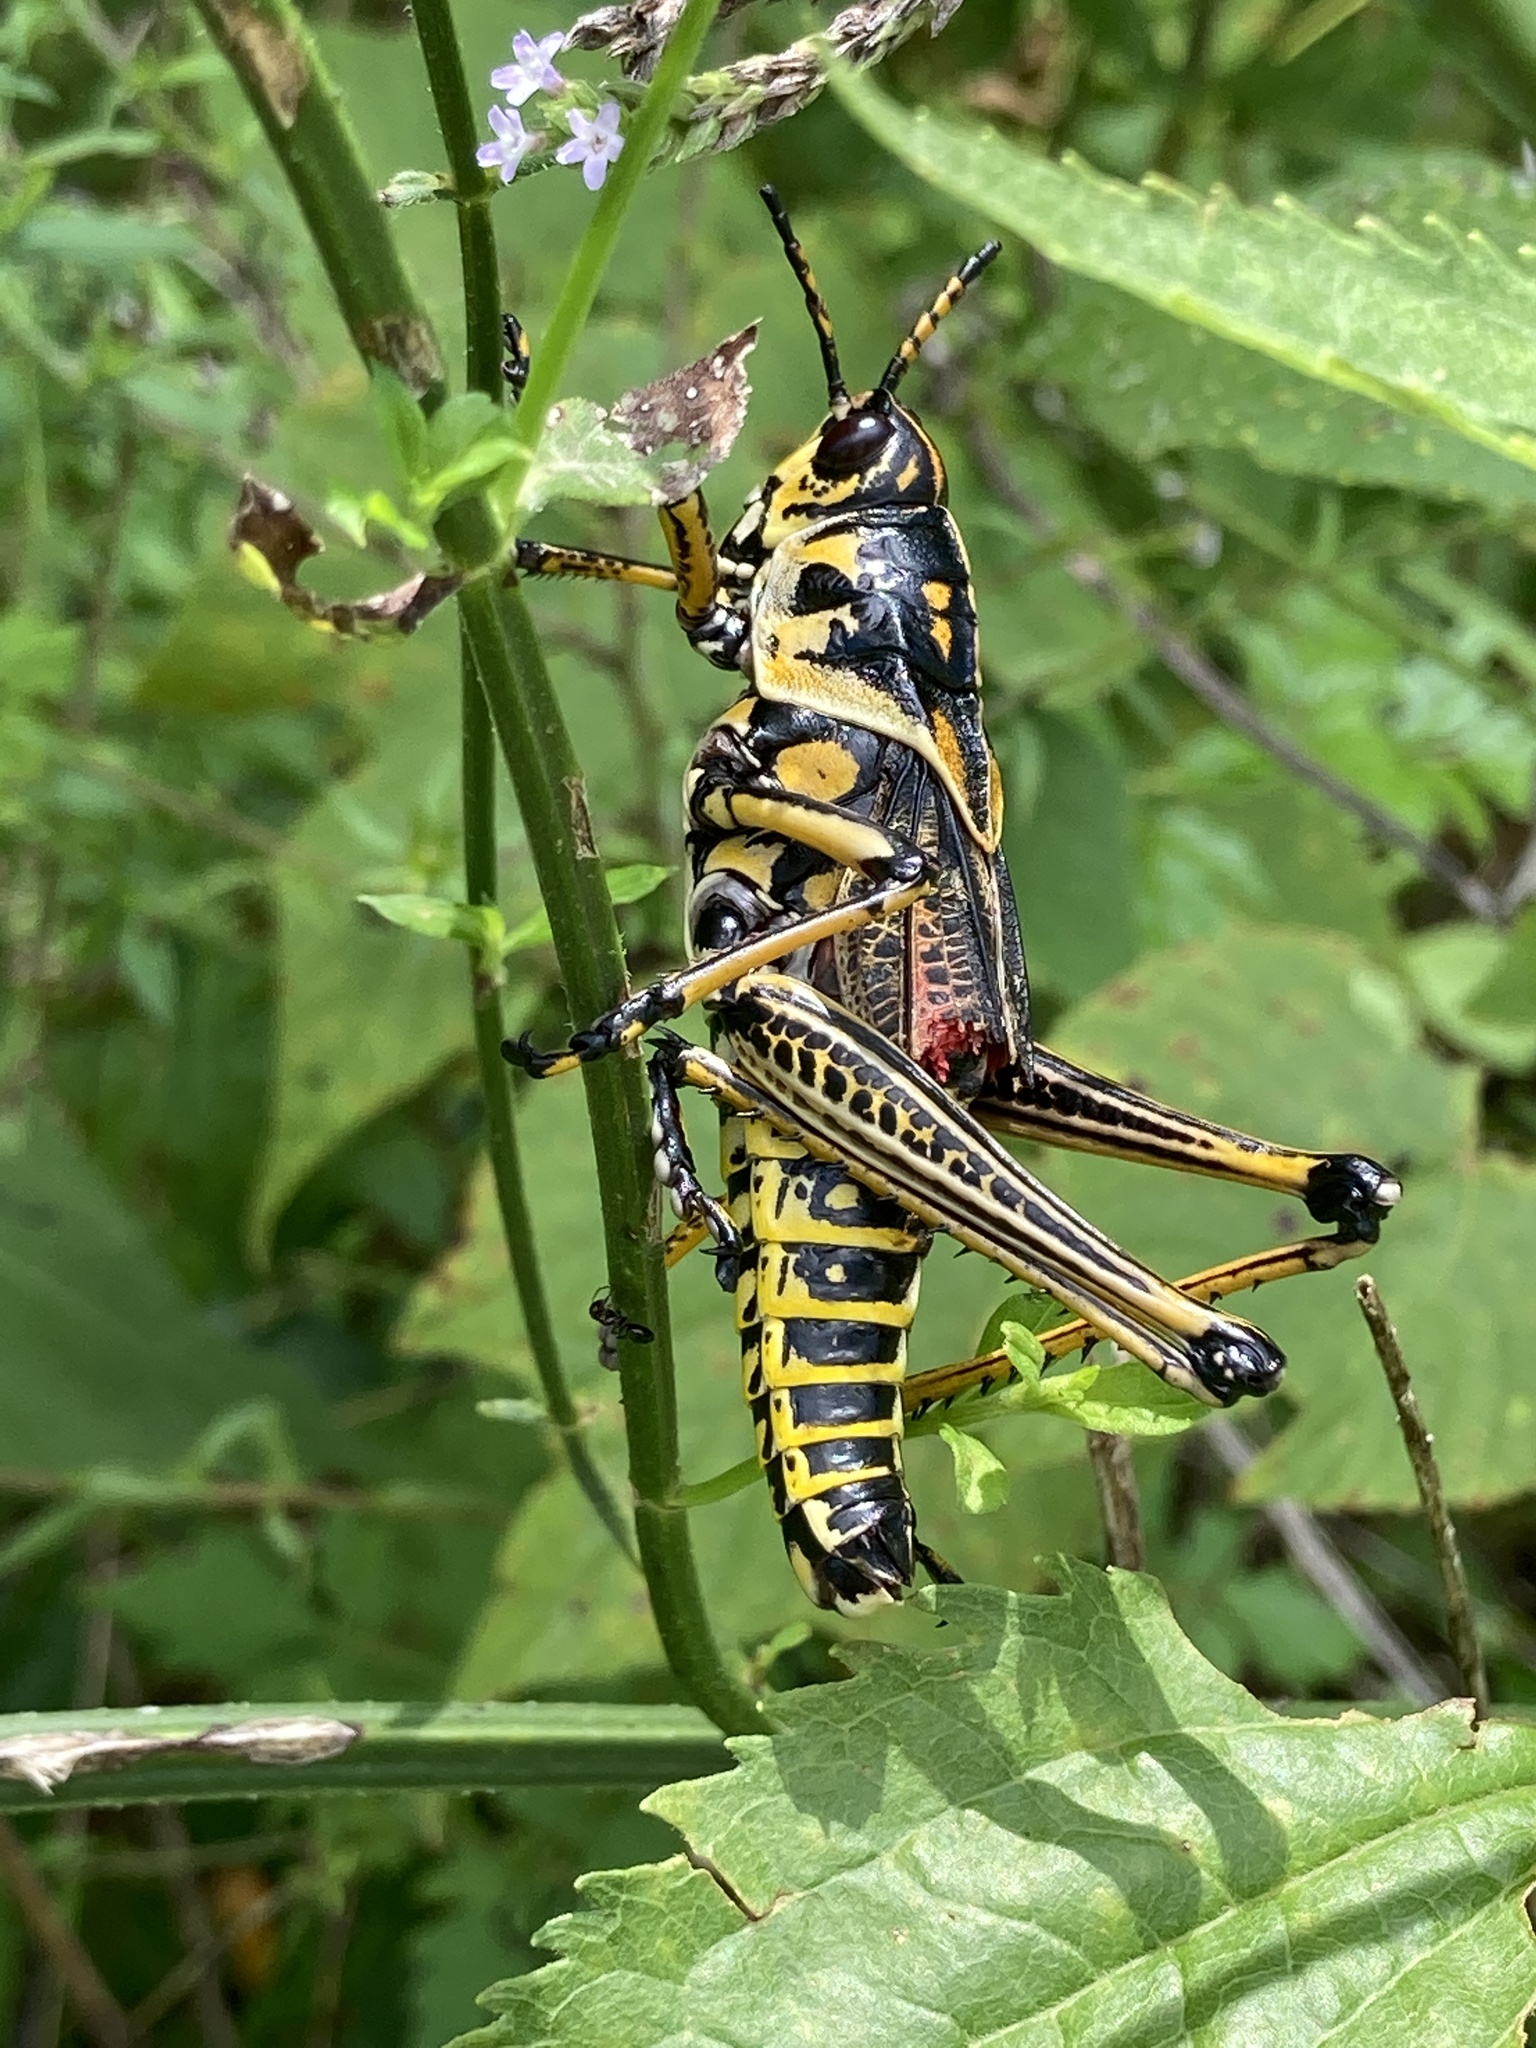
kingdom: Animalia
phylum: Arthropoda
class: Insecta
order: Orthoptera
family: Romaleidae
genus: Romalea
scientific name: Romalea microptera
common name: Eastern lubber grasshopper
